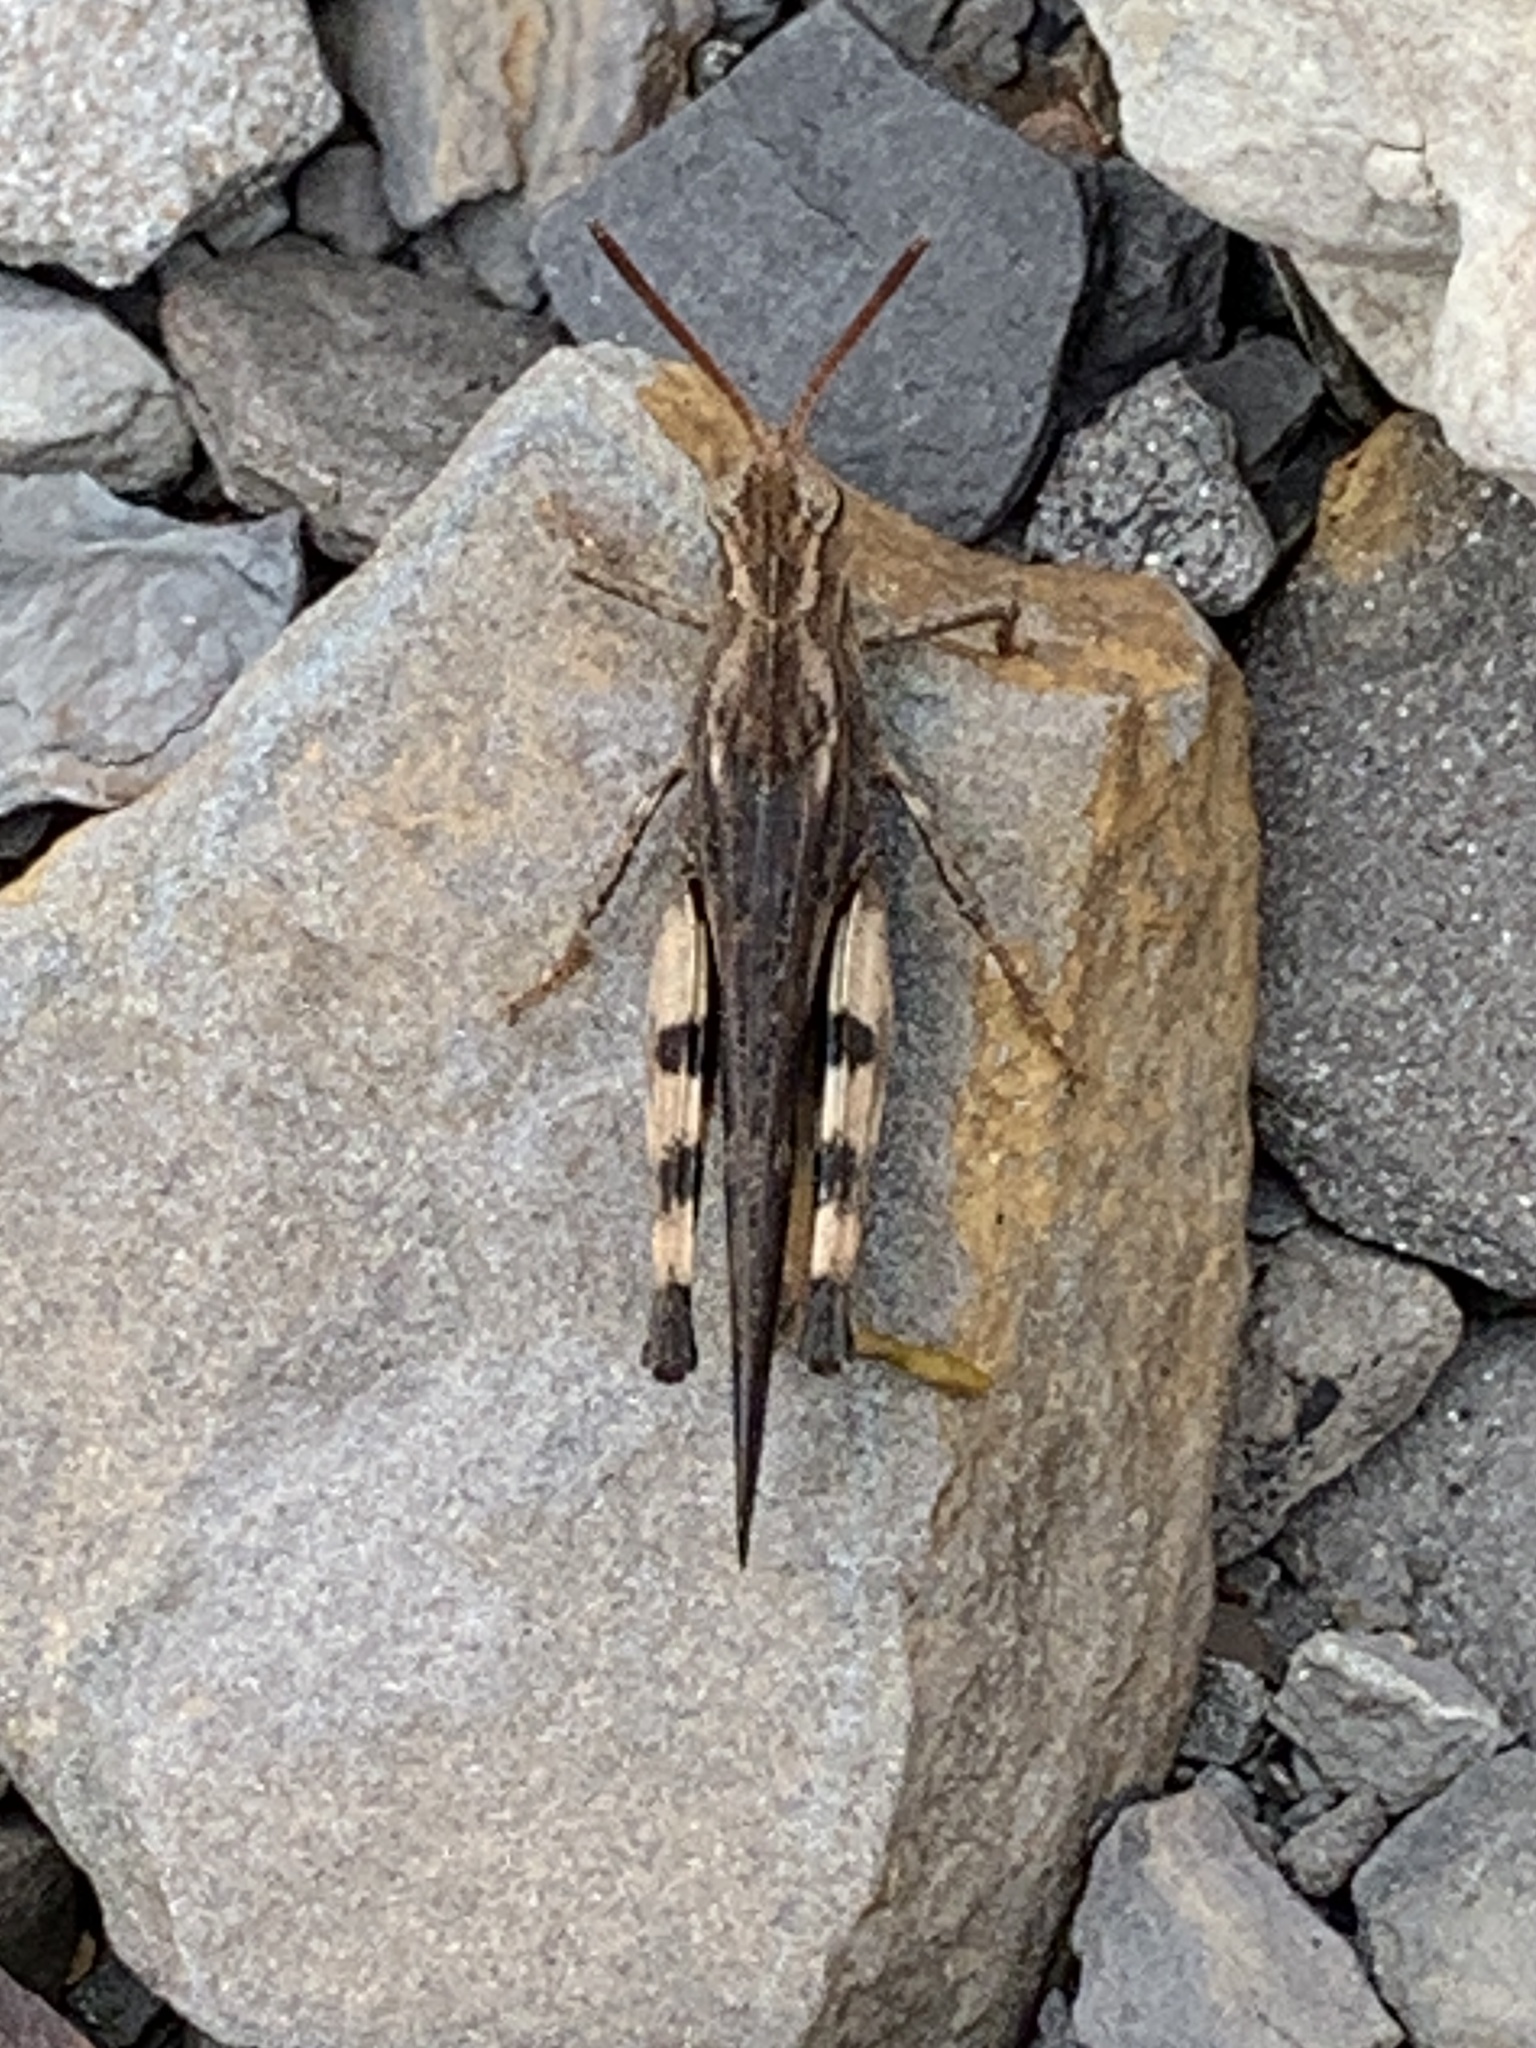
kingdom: Animalia
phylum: Arthropoda
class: Insecta
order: Orthoptera
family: Acrididae
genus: Chortophaga
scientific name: Chortophaga viridifasciata
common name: Green-striped grasshopper
